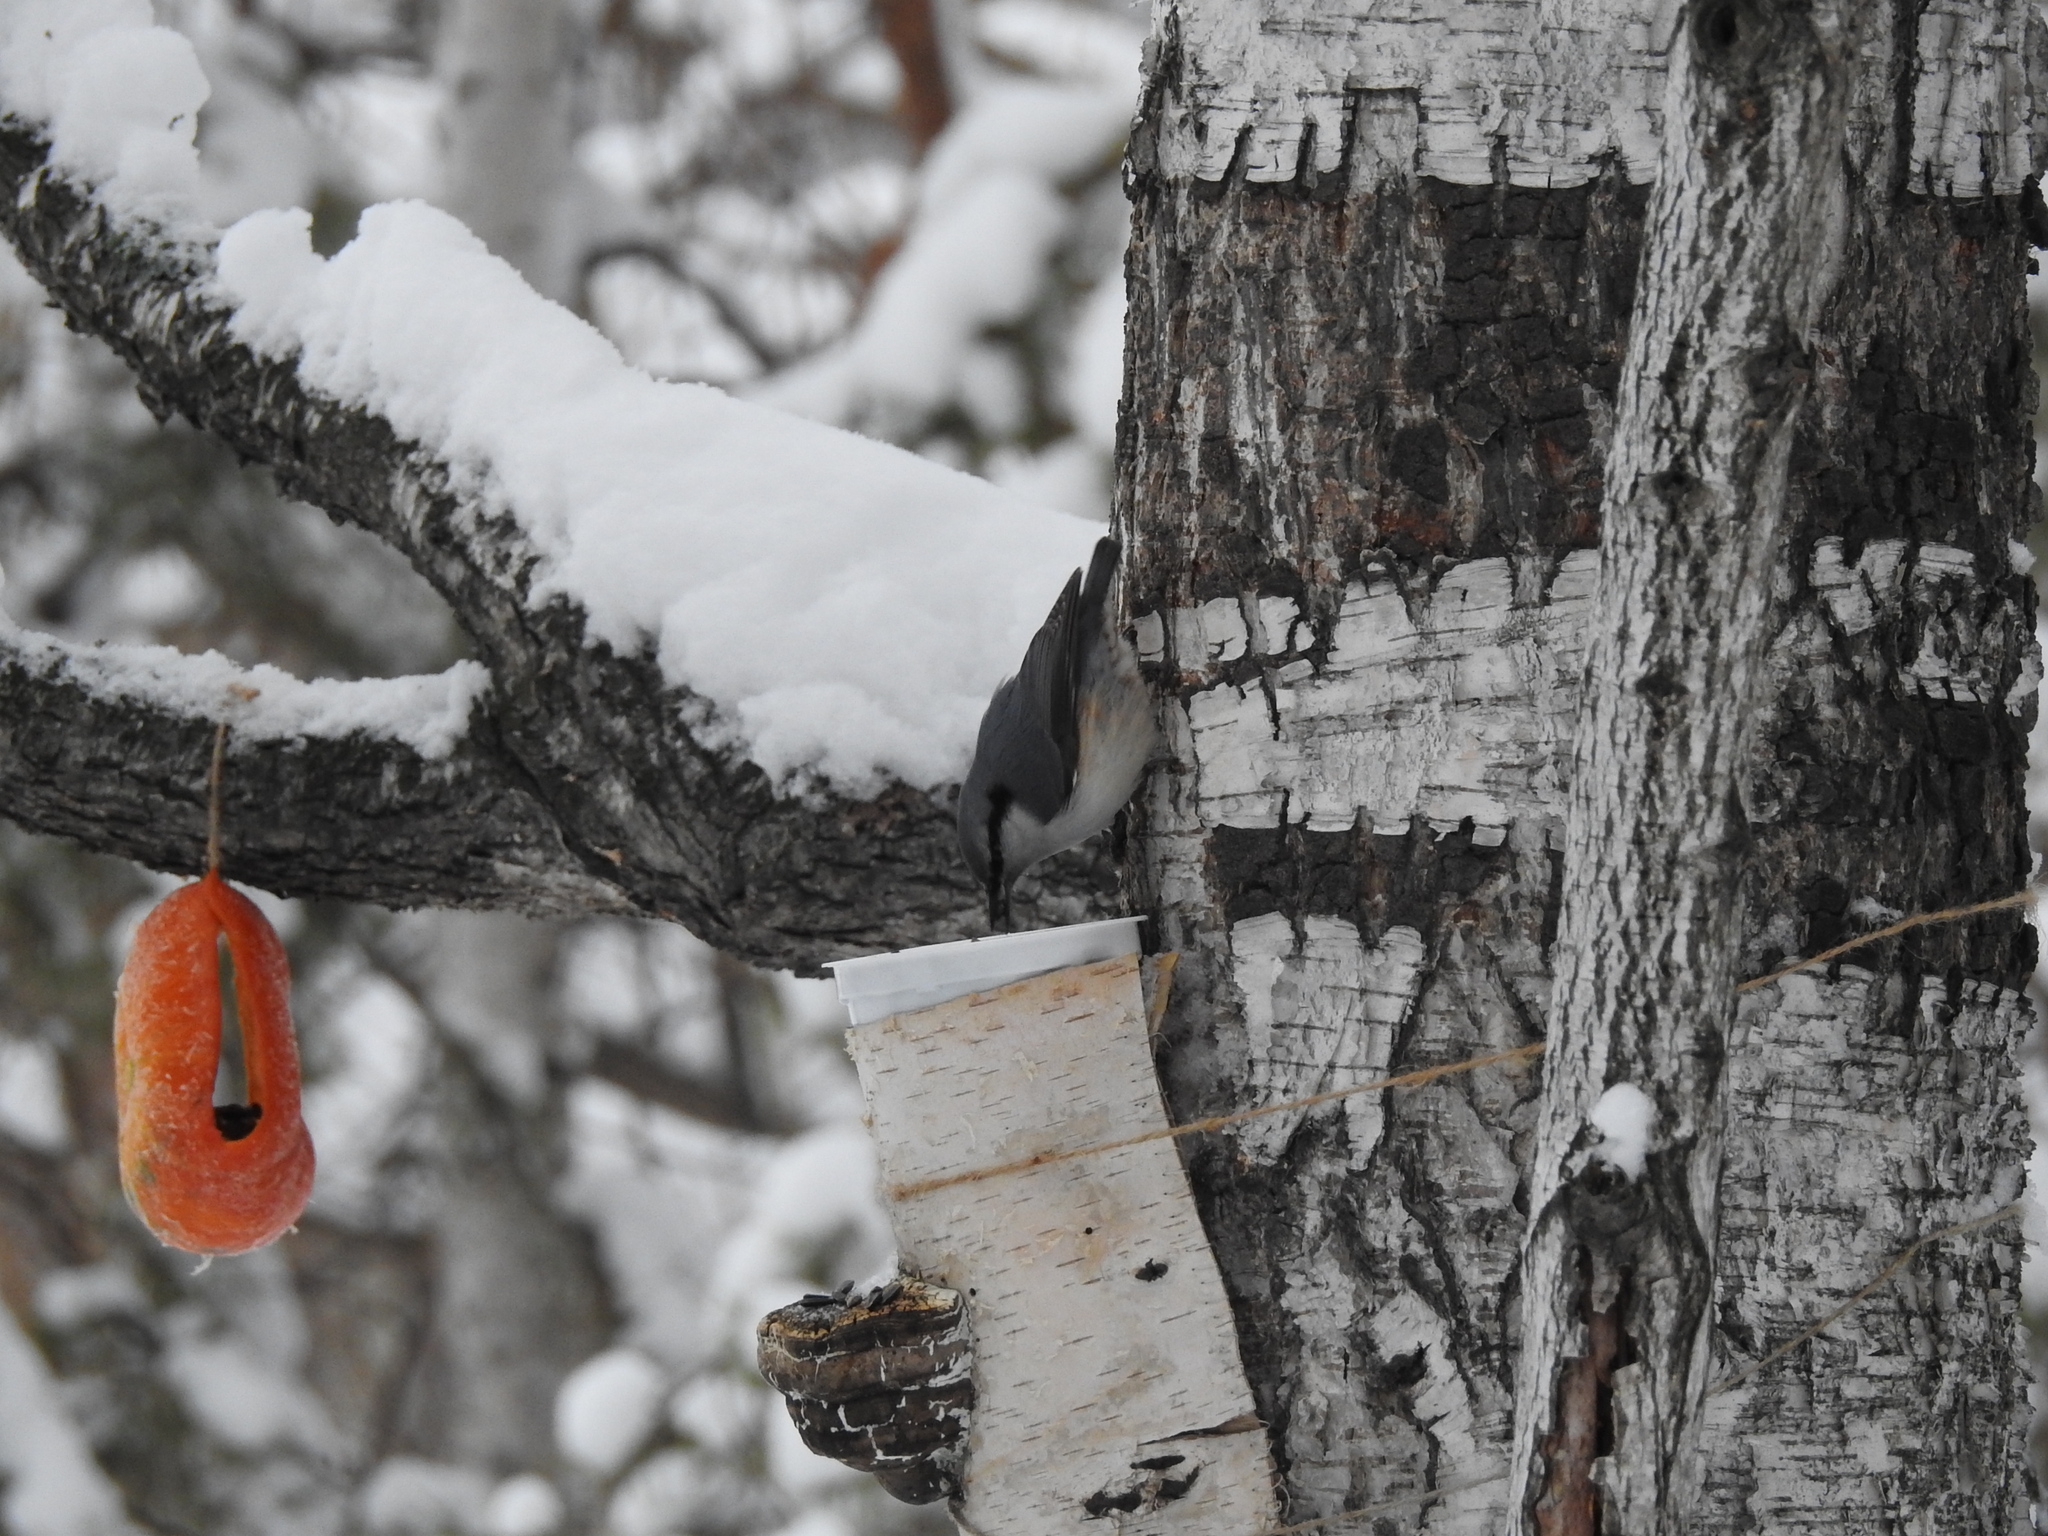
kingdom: Animalia
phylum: Chordata
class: Aves
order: Passeriformes
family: Sittidae
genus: Sitta
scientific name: Sitta europaea
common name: Eurasian nuthatch
